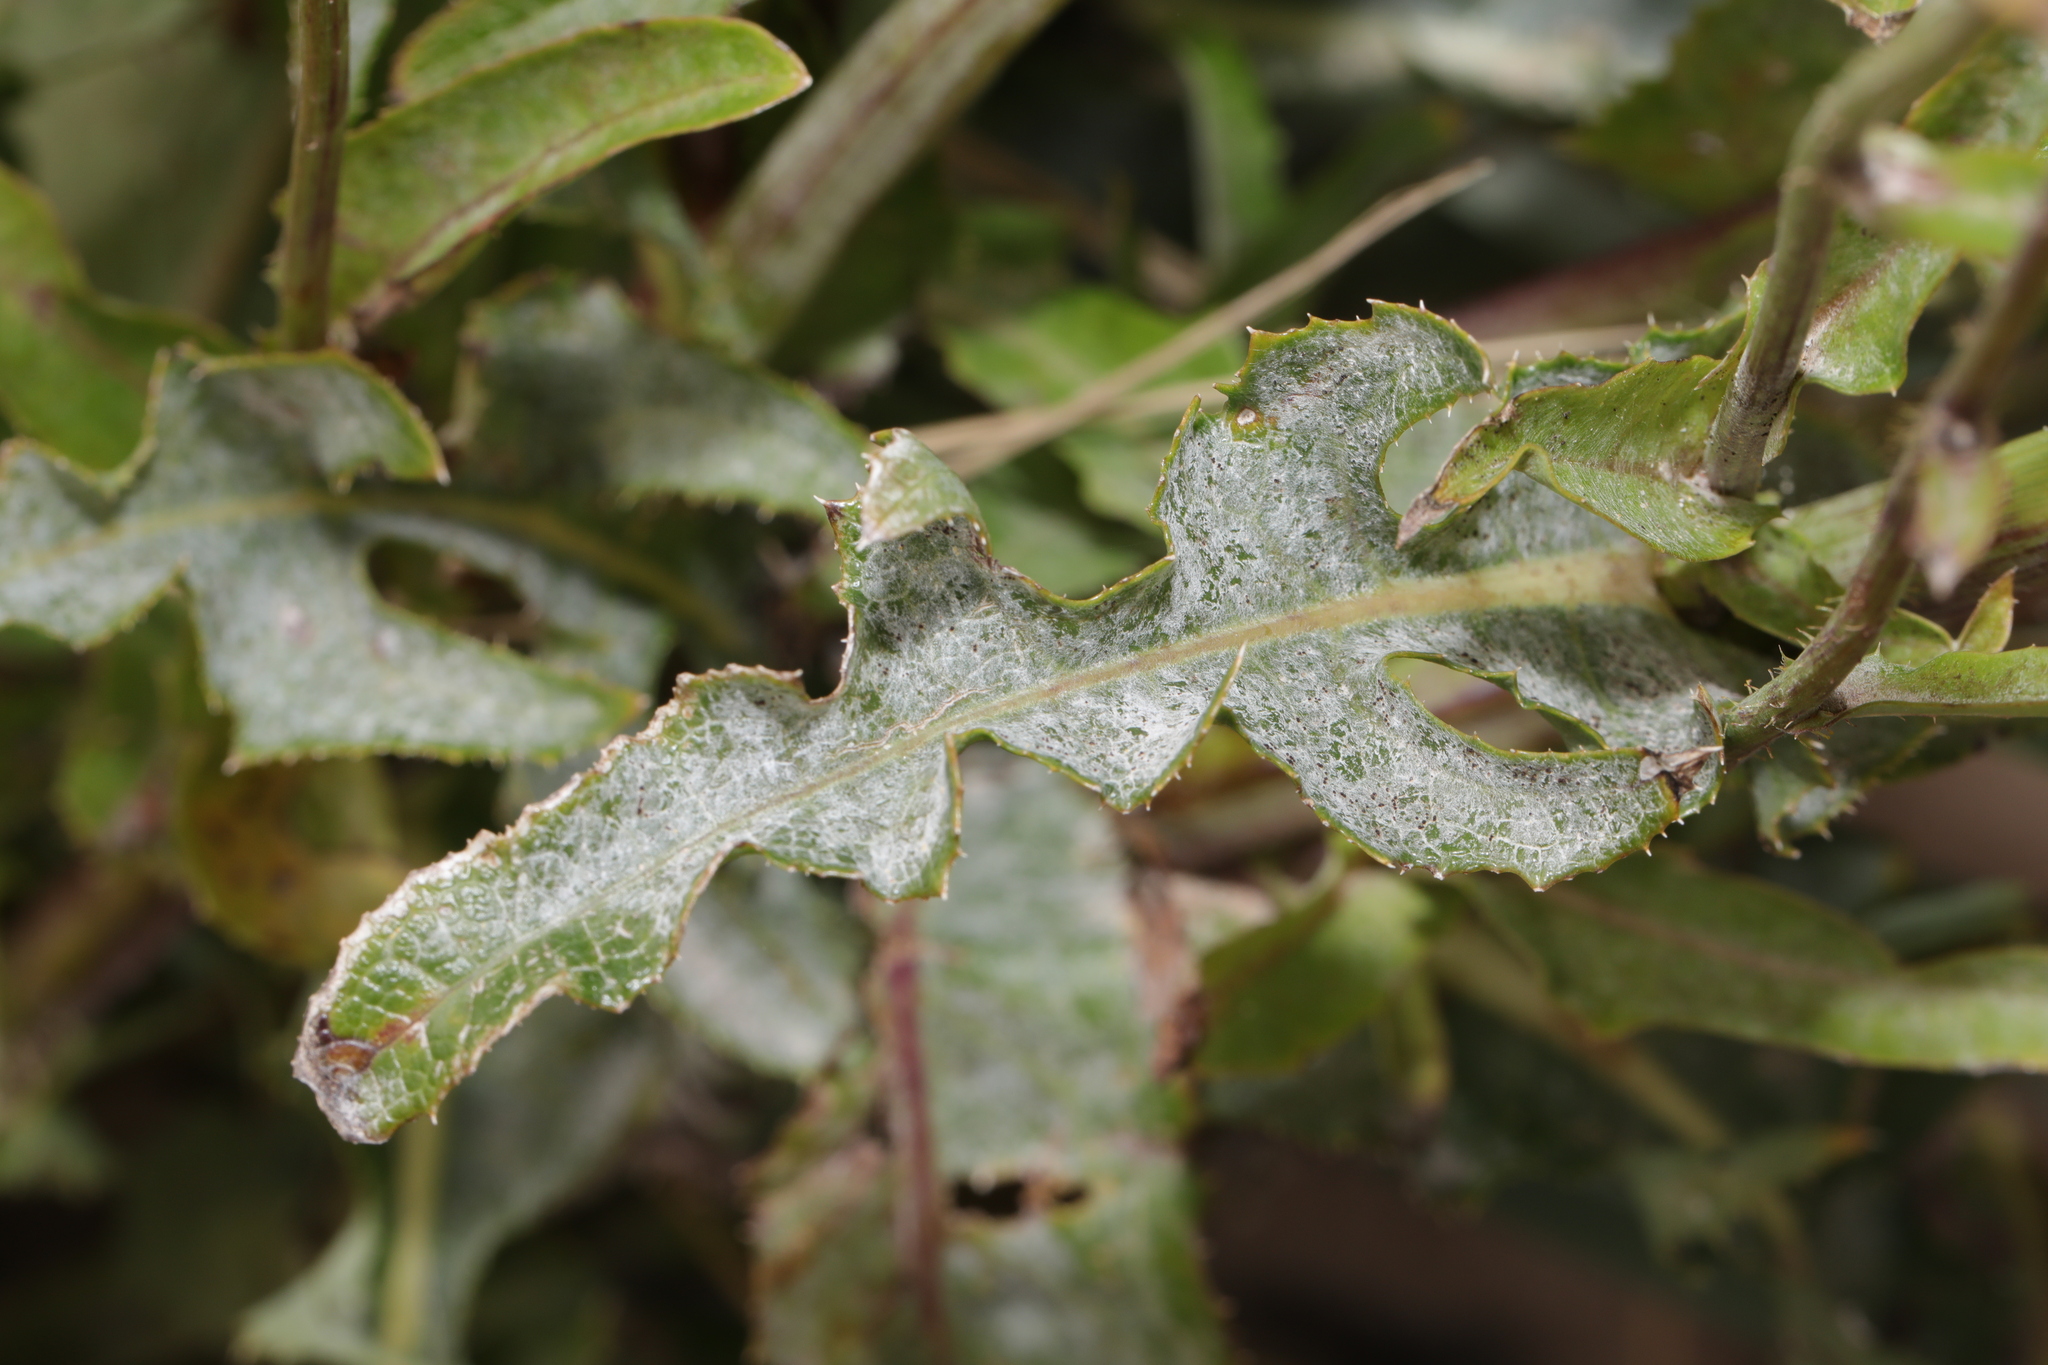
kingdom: Fungi
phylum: Ascomycota
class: Leotiomycetes
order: Helotiales
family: Erysiphaceae
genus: Golovinomyces
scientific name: Golovinomyces sonchicola
